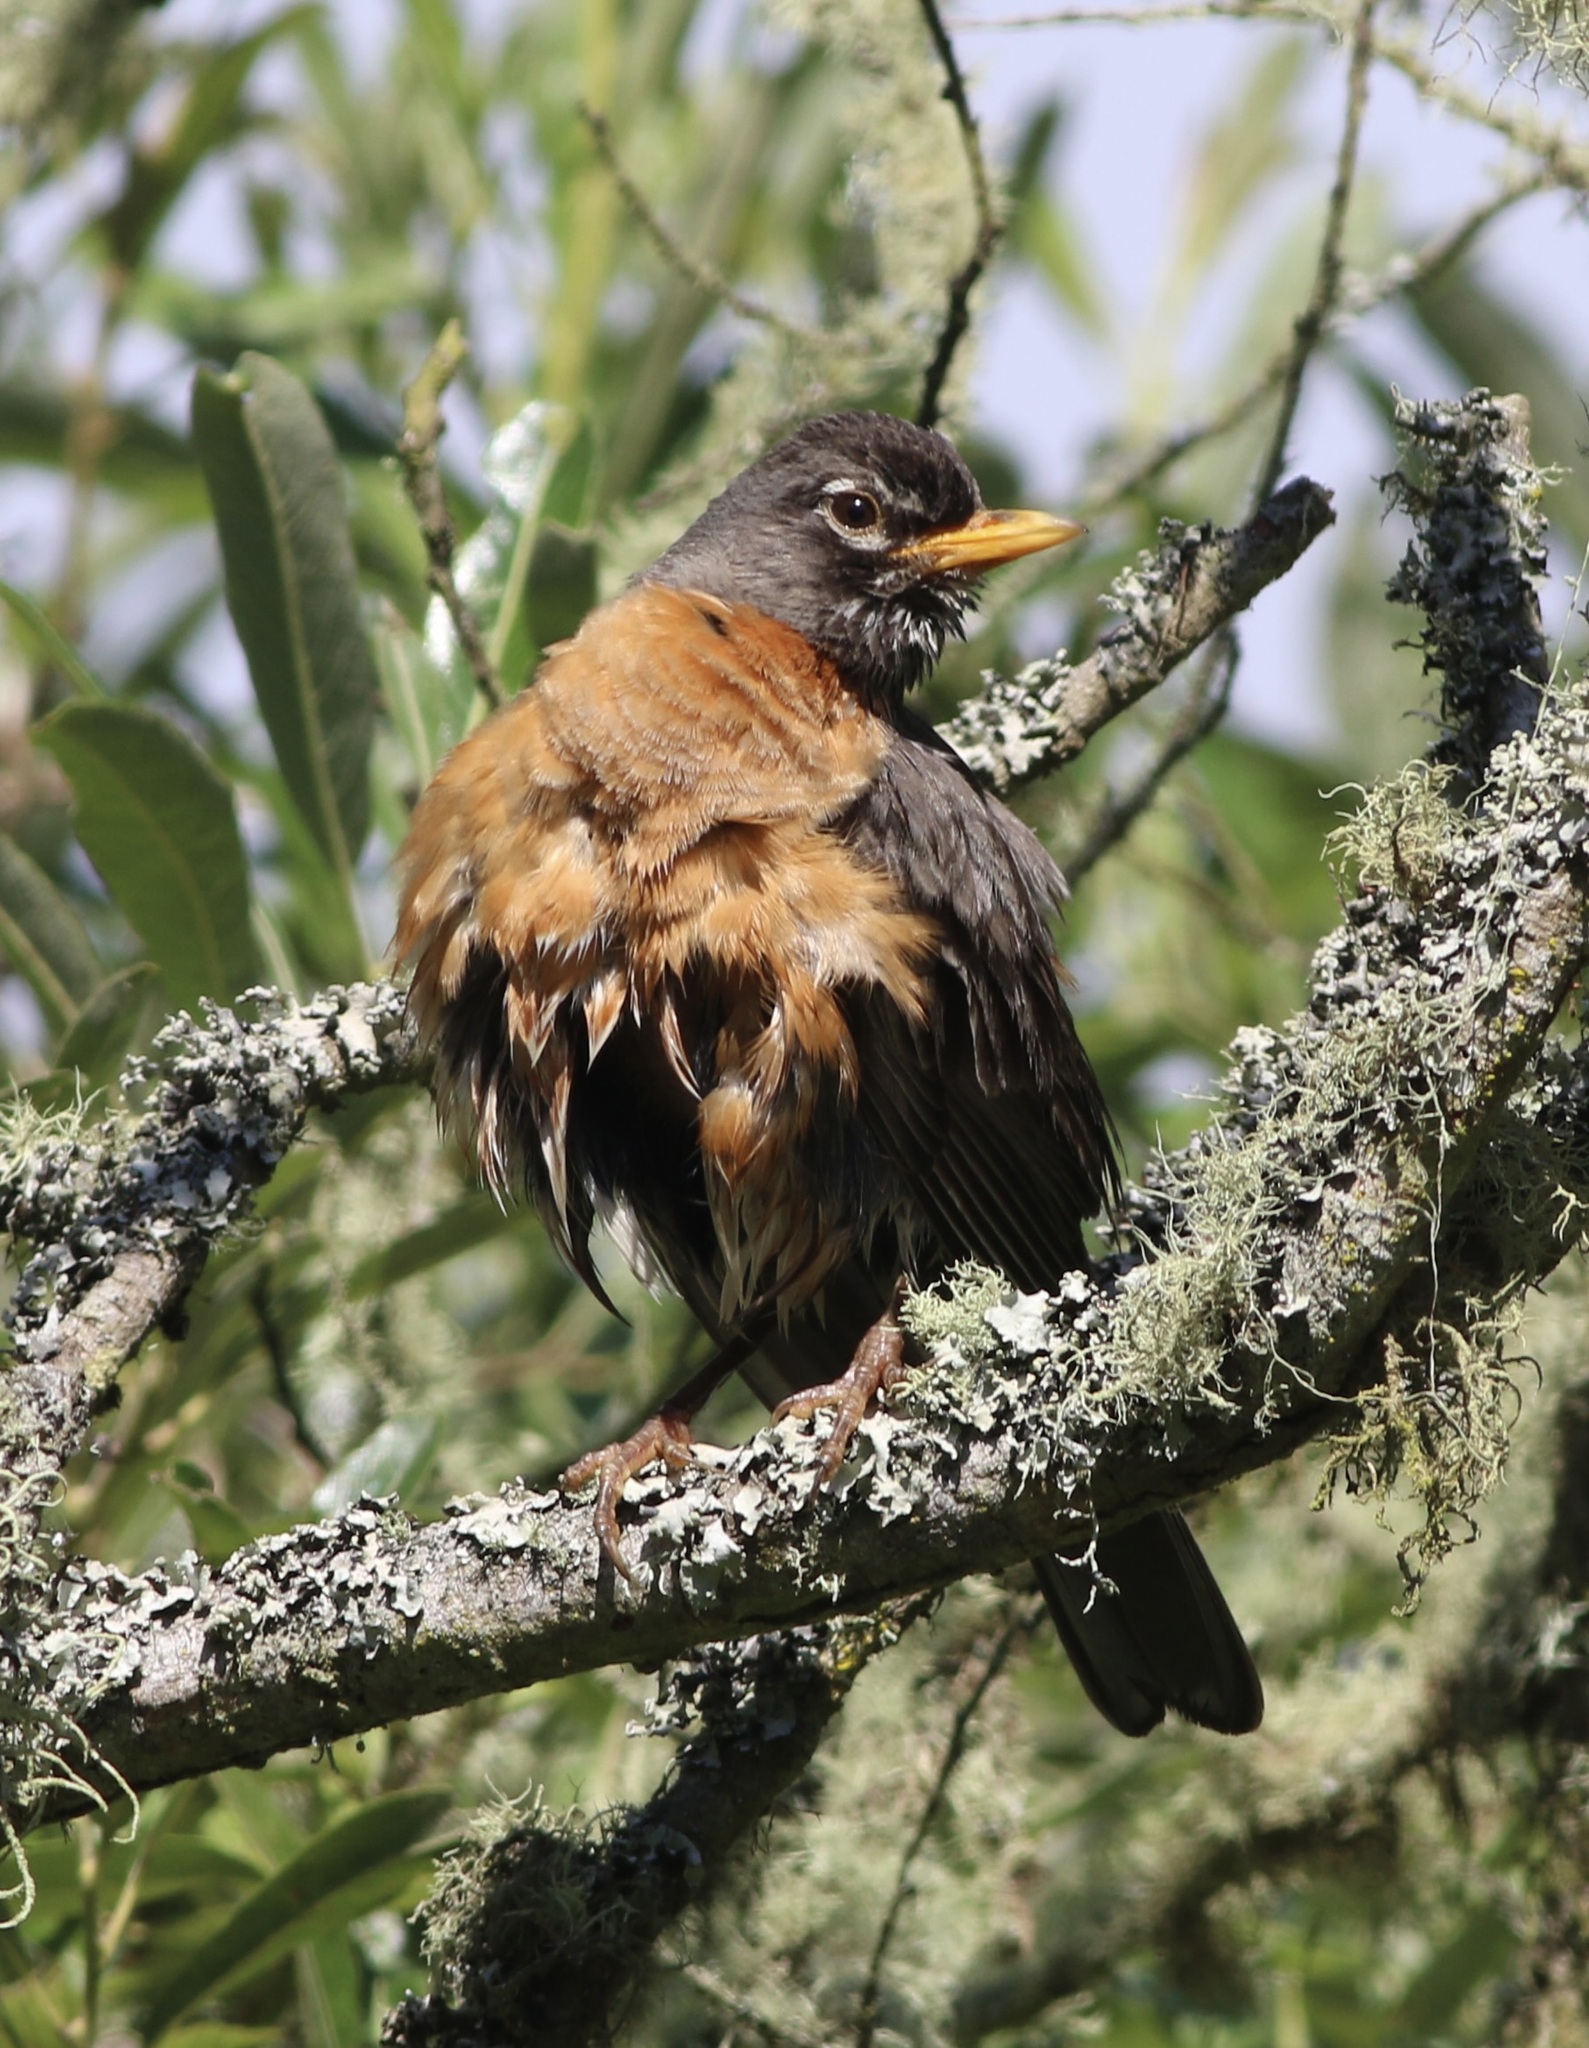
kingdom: Animalia
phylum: Chordata
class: Aves
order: Passeriformes
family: Turdidae
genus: Turdus
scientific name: Turdus migratorius
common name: American robin
